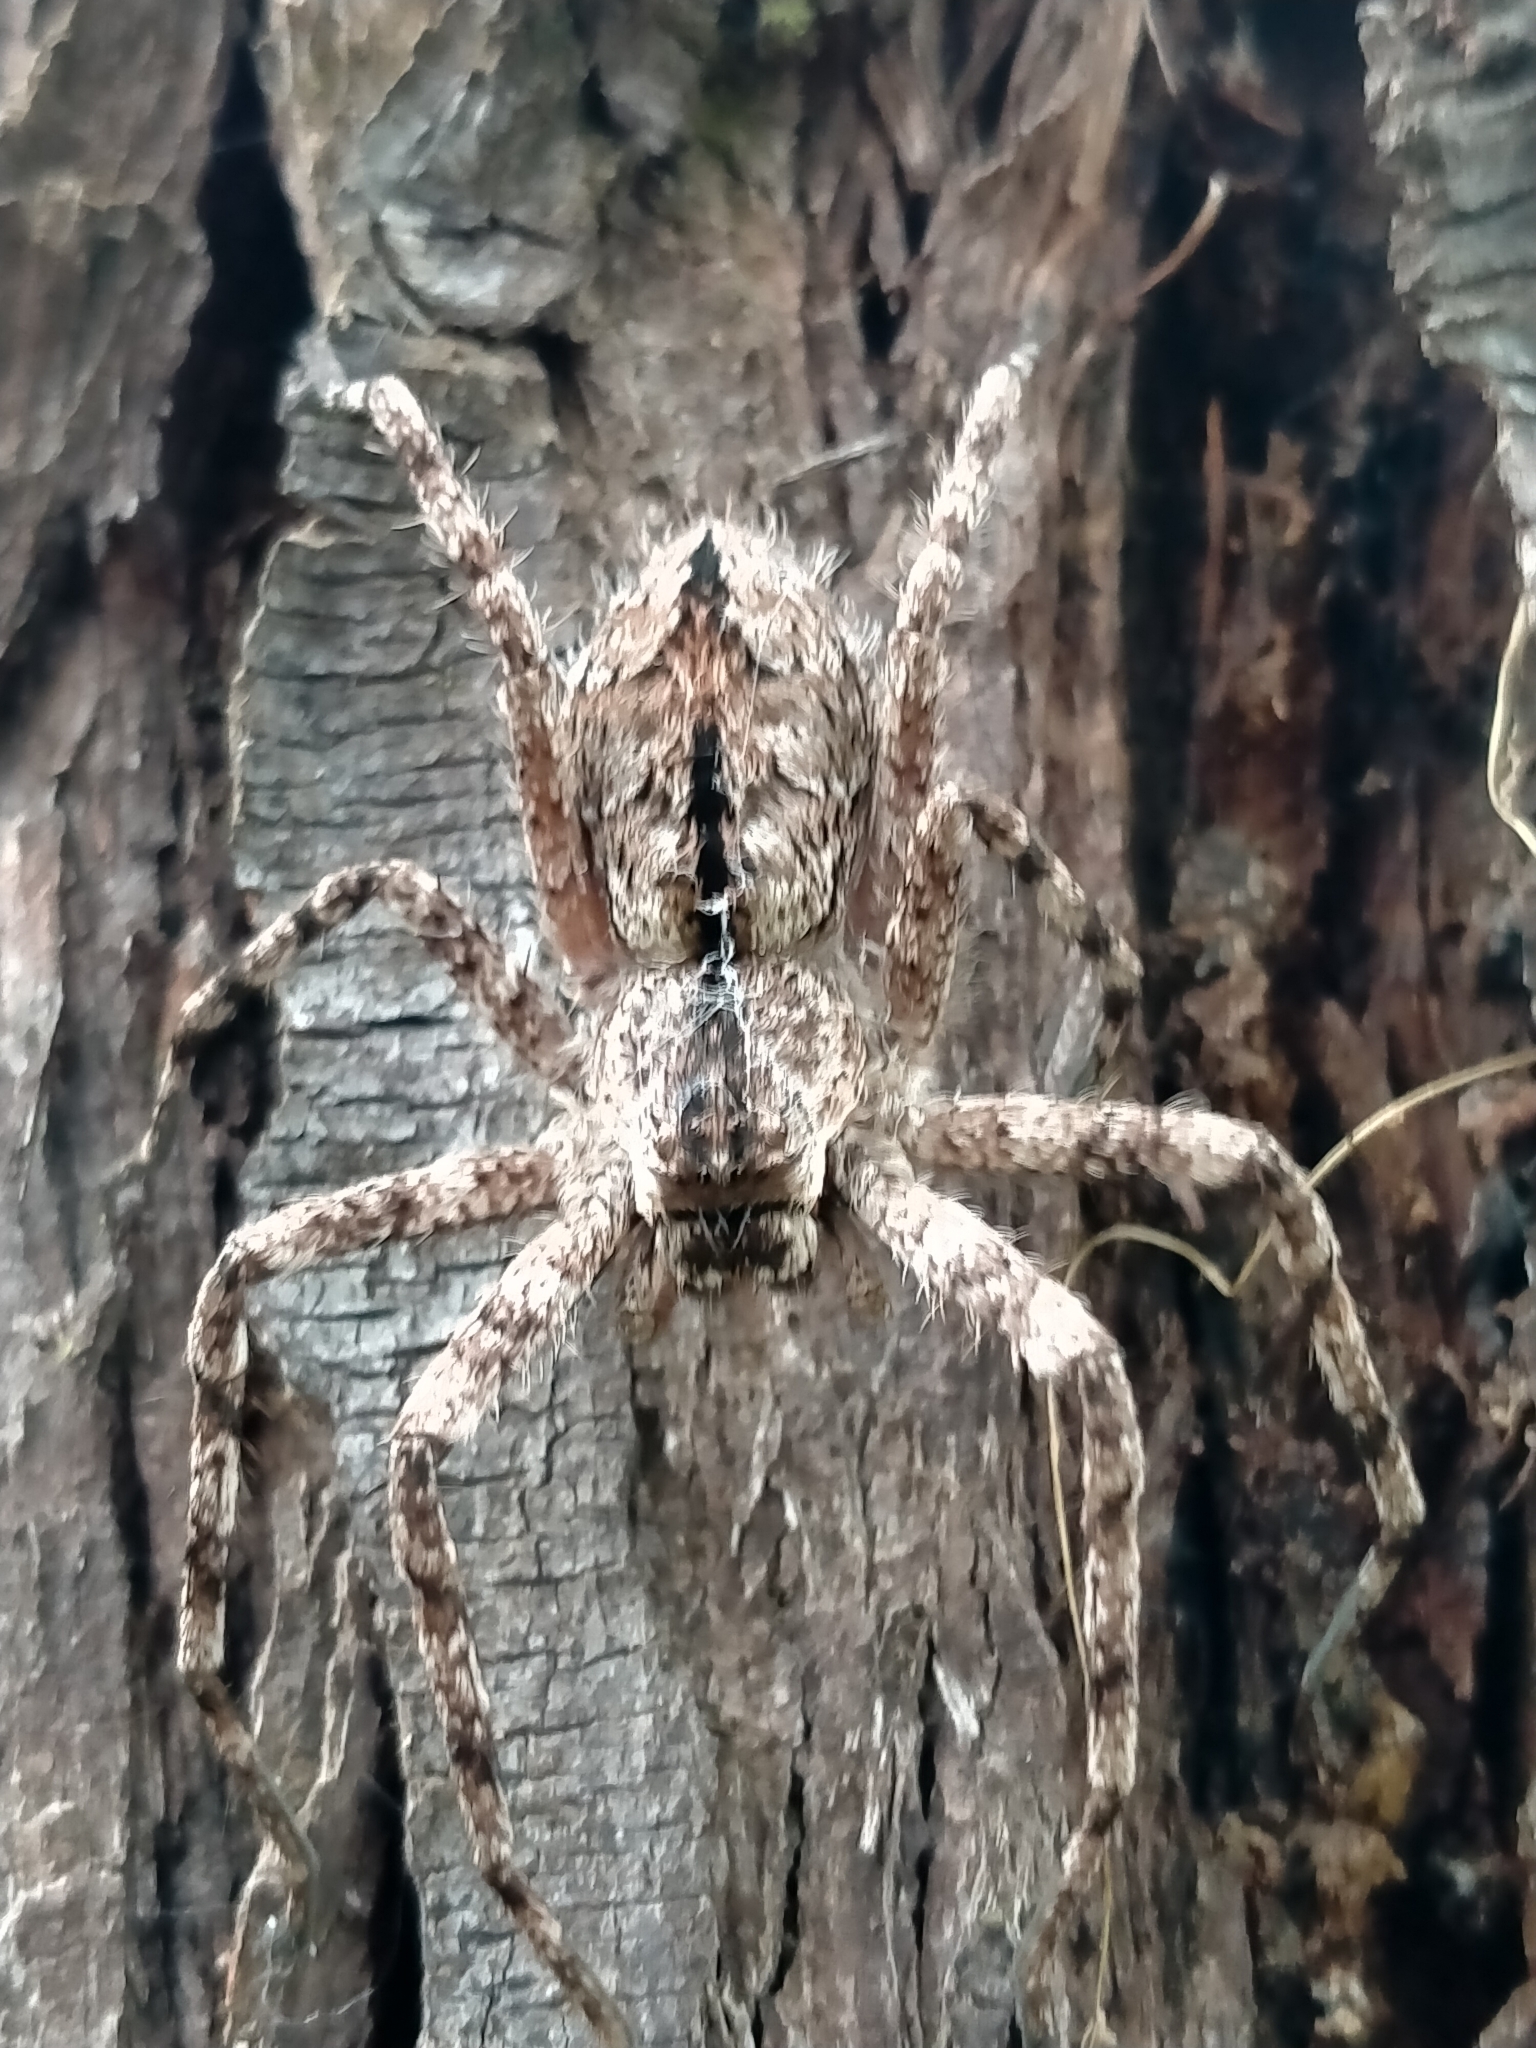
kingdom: Animalia
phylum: Arthropoda
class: Arachnida
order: Araneae
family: Sparassidae
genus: Pediana
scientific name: Pediana regina
